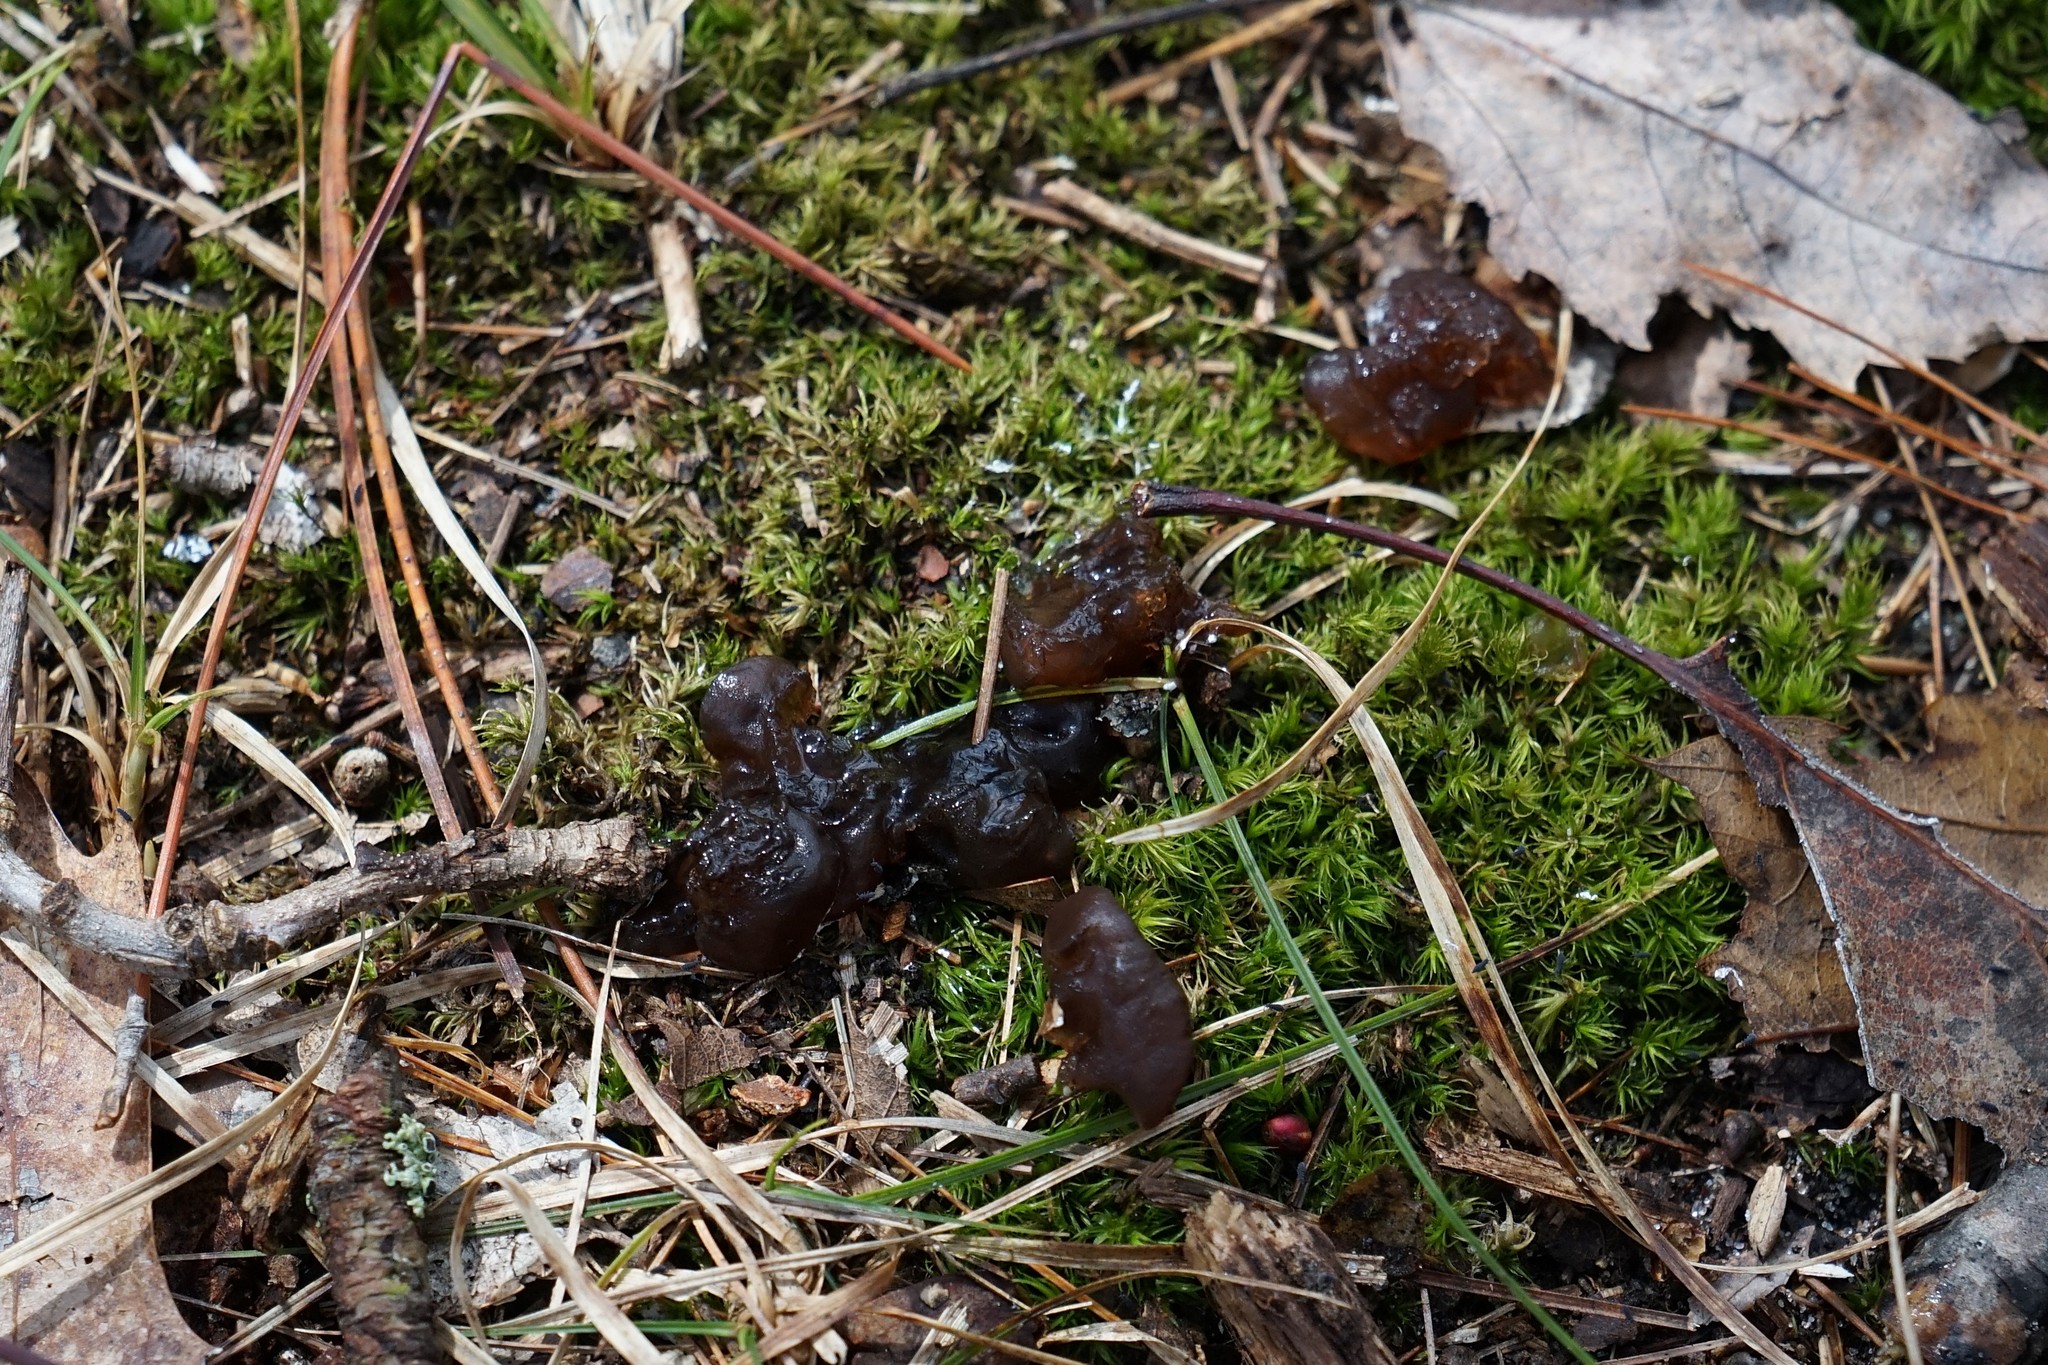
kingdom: Fungi
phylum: Basidiomycota
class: Agaricomycetes
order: Auriculariales
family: Auriculariaceae
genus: Exidia
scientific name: Exidia
